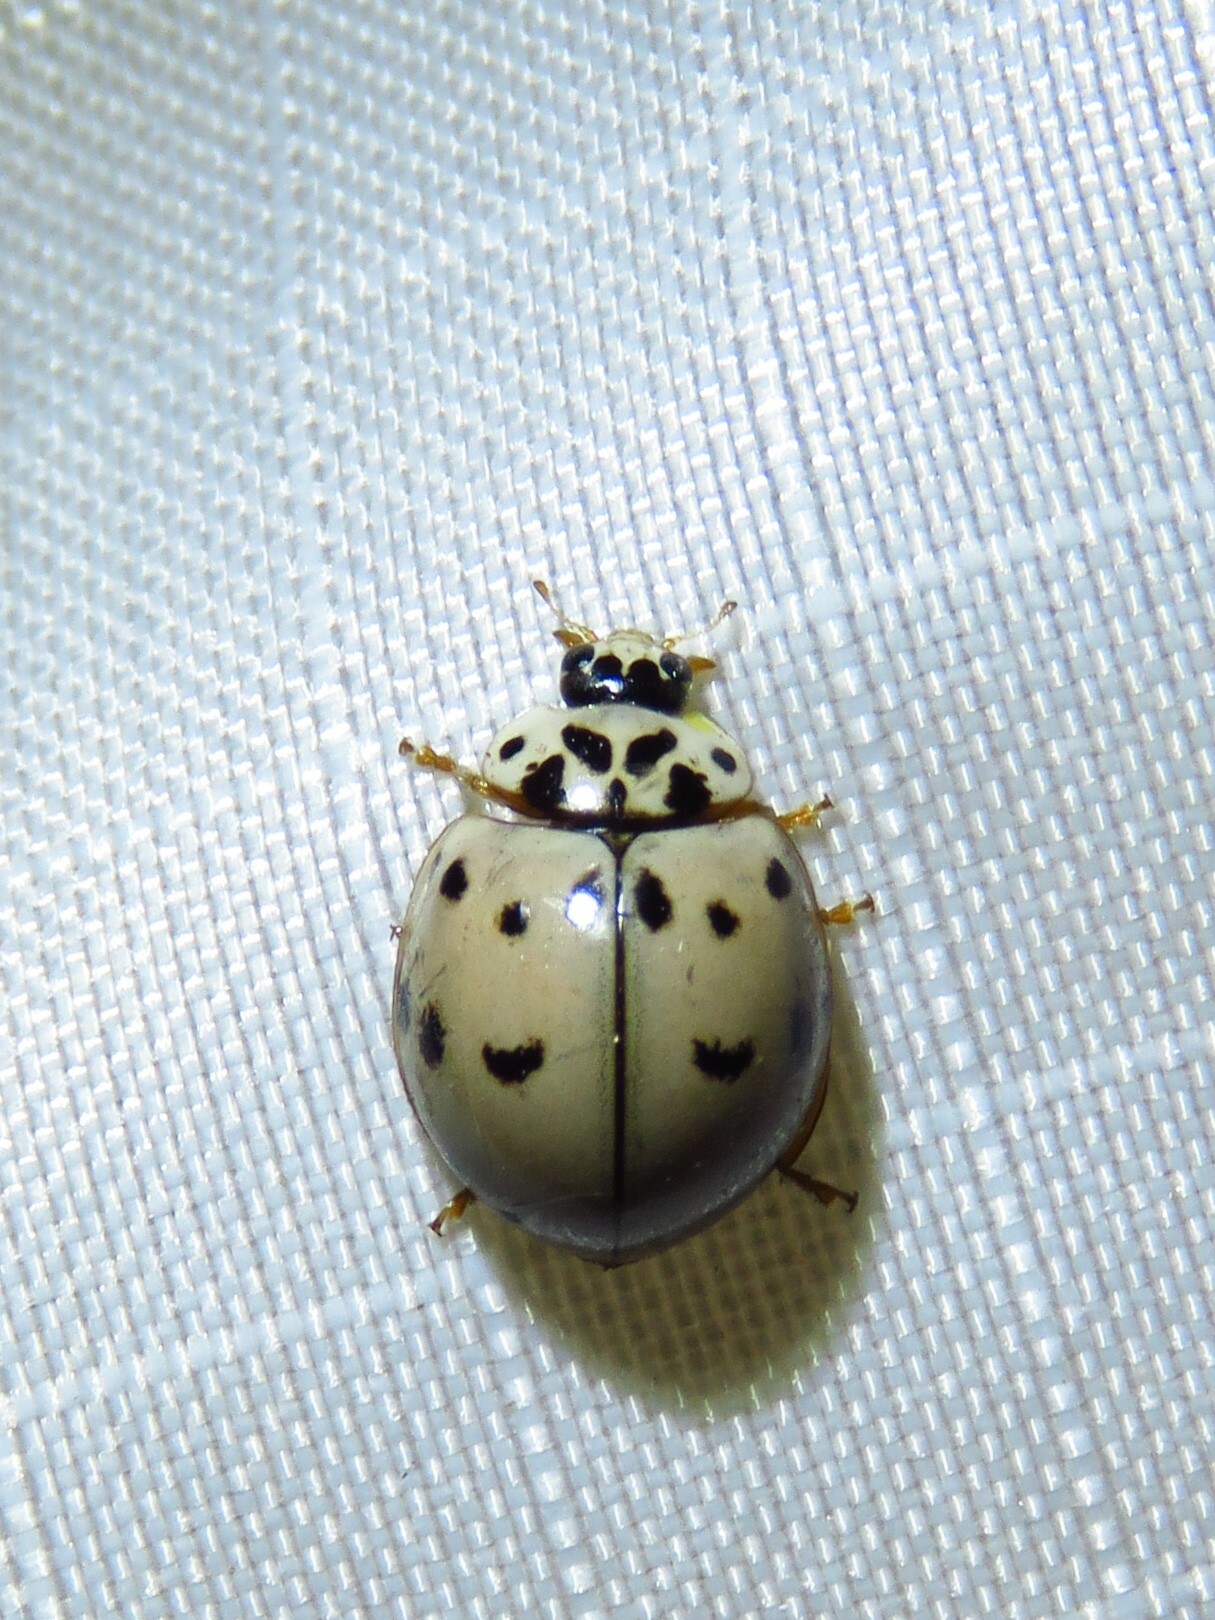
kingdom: Animalia
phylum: Arthropoda
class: Insecta
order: Coleoptera
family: Coccinellidae
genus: Olla
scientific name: Olla v-nigrum
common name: Ashy gray lady beetle
